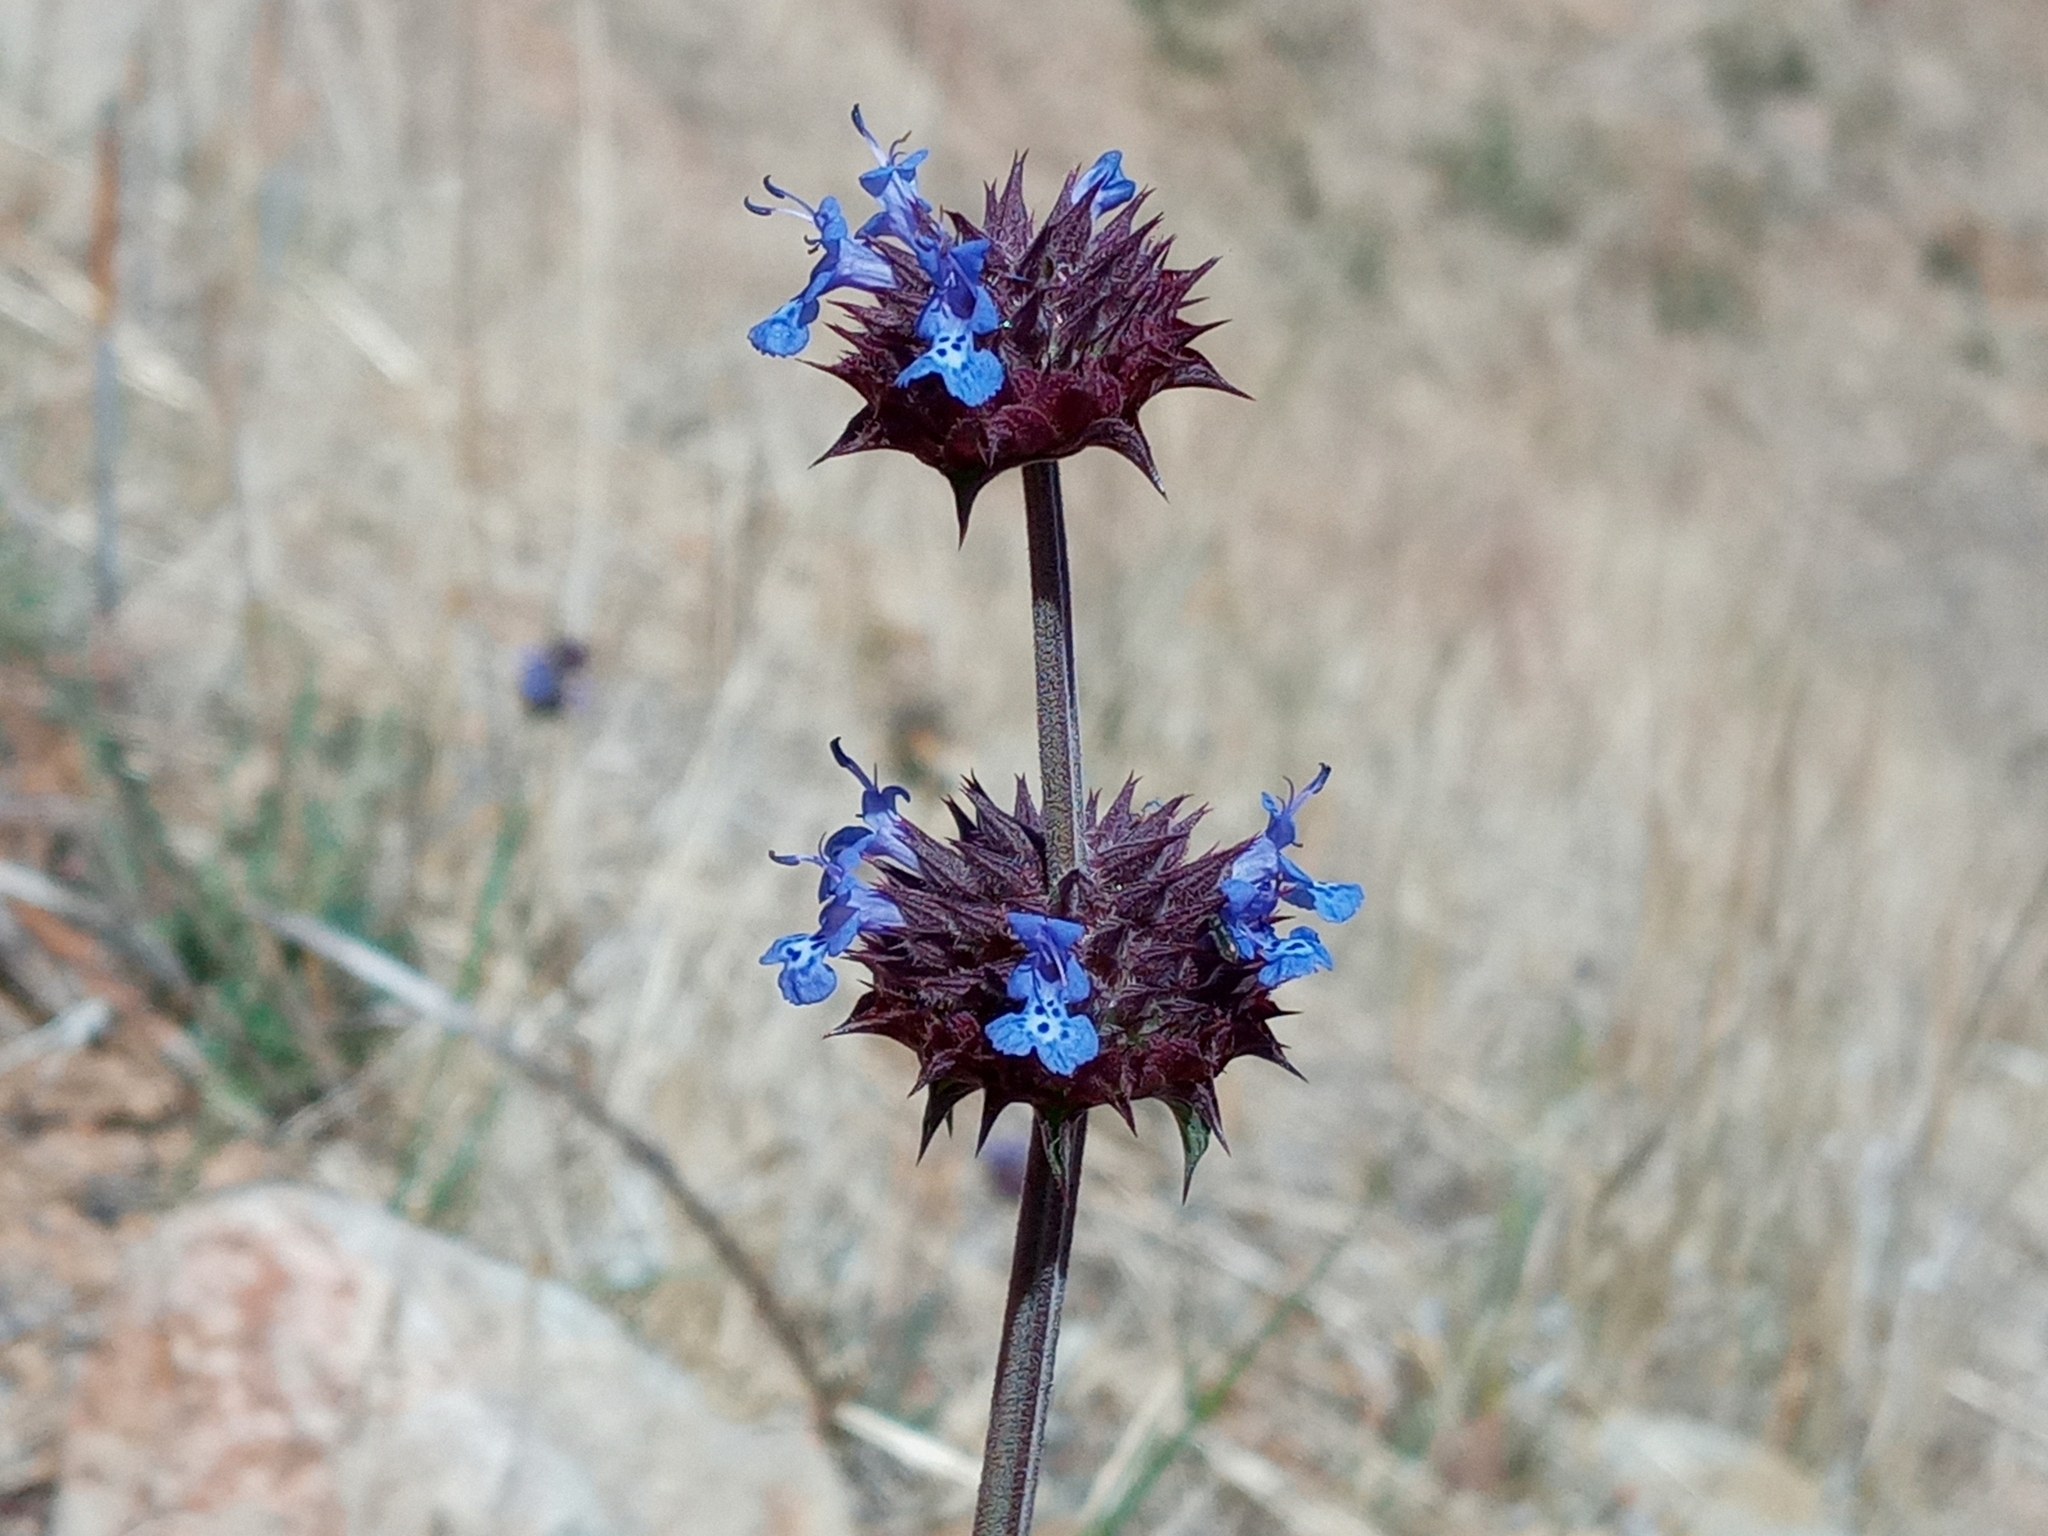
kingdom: Plantae
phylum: Tracheophyta
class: Magnoliopsida
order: Lamiales
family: Lamiaceae
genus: Salvia
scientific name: Salvia columbariae
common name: Chia
